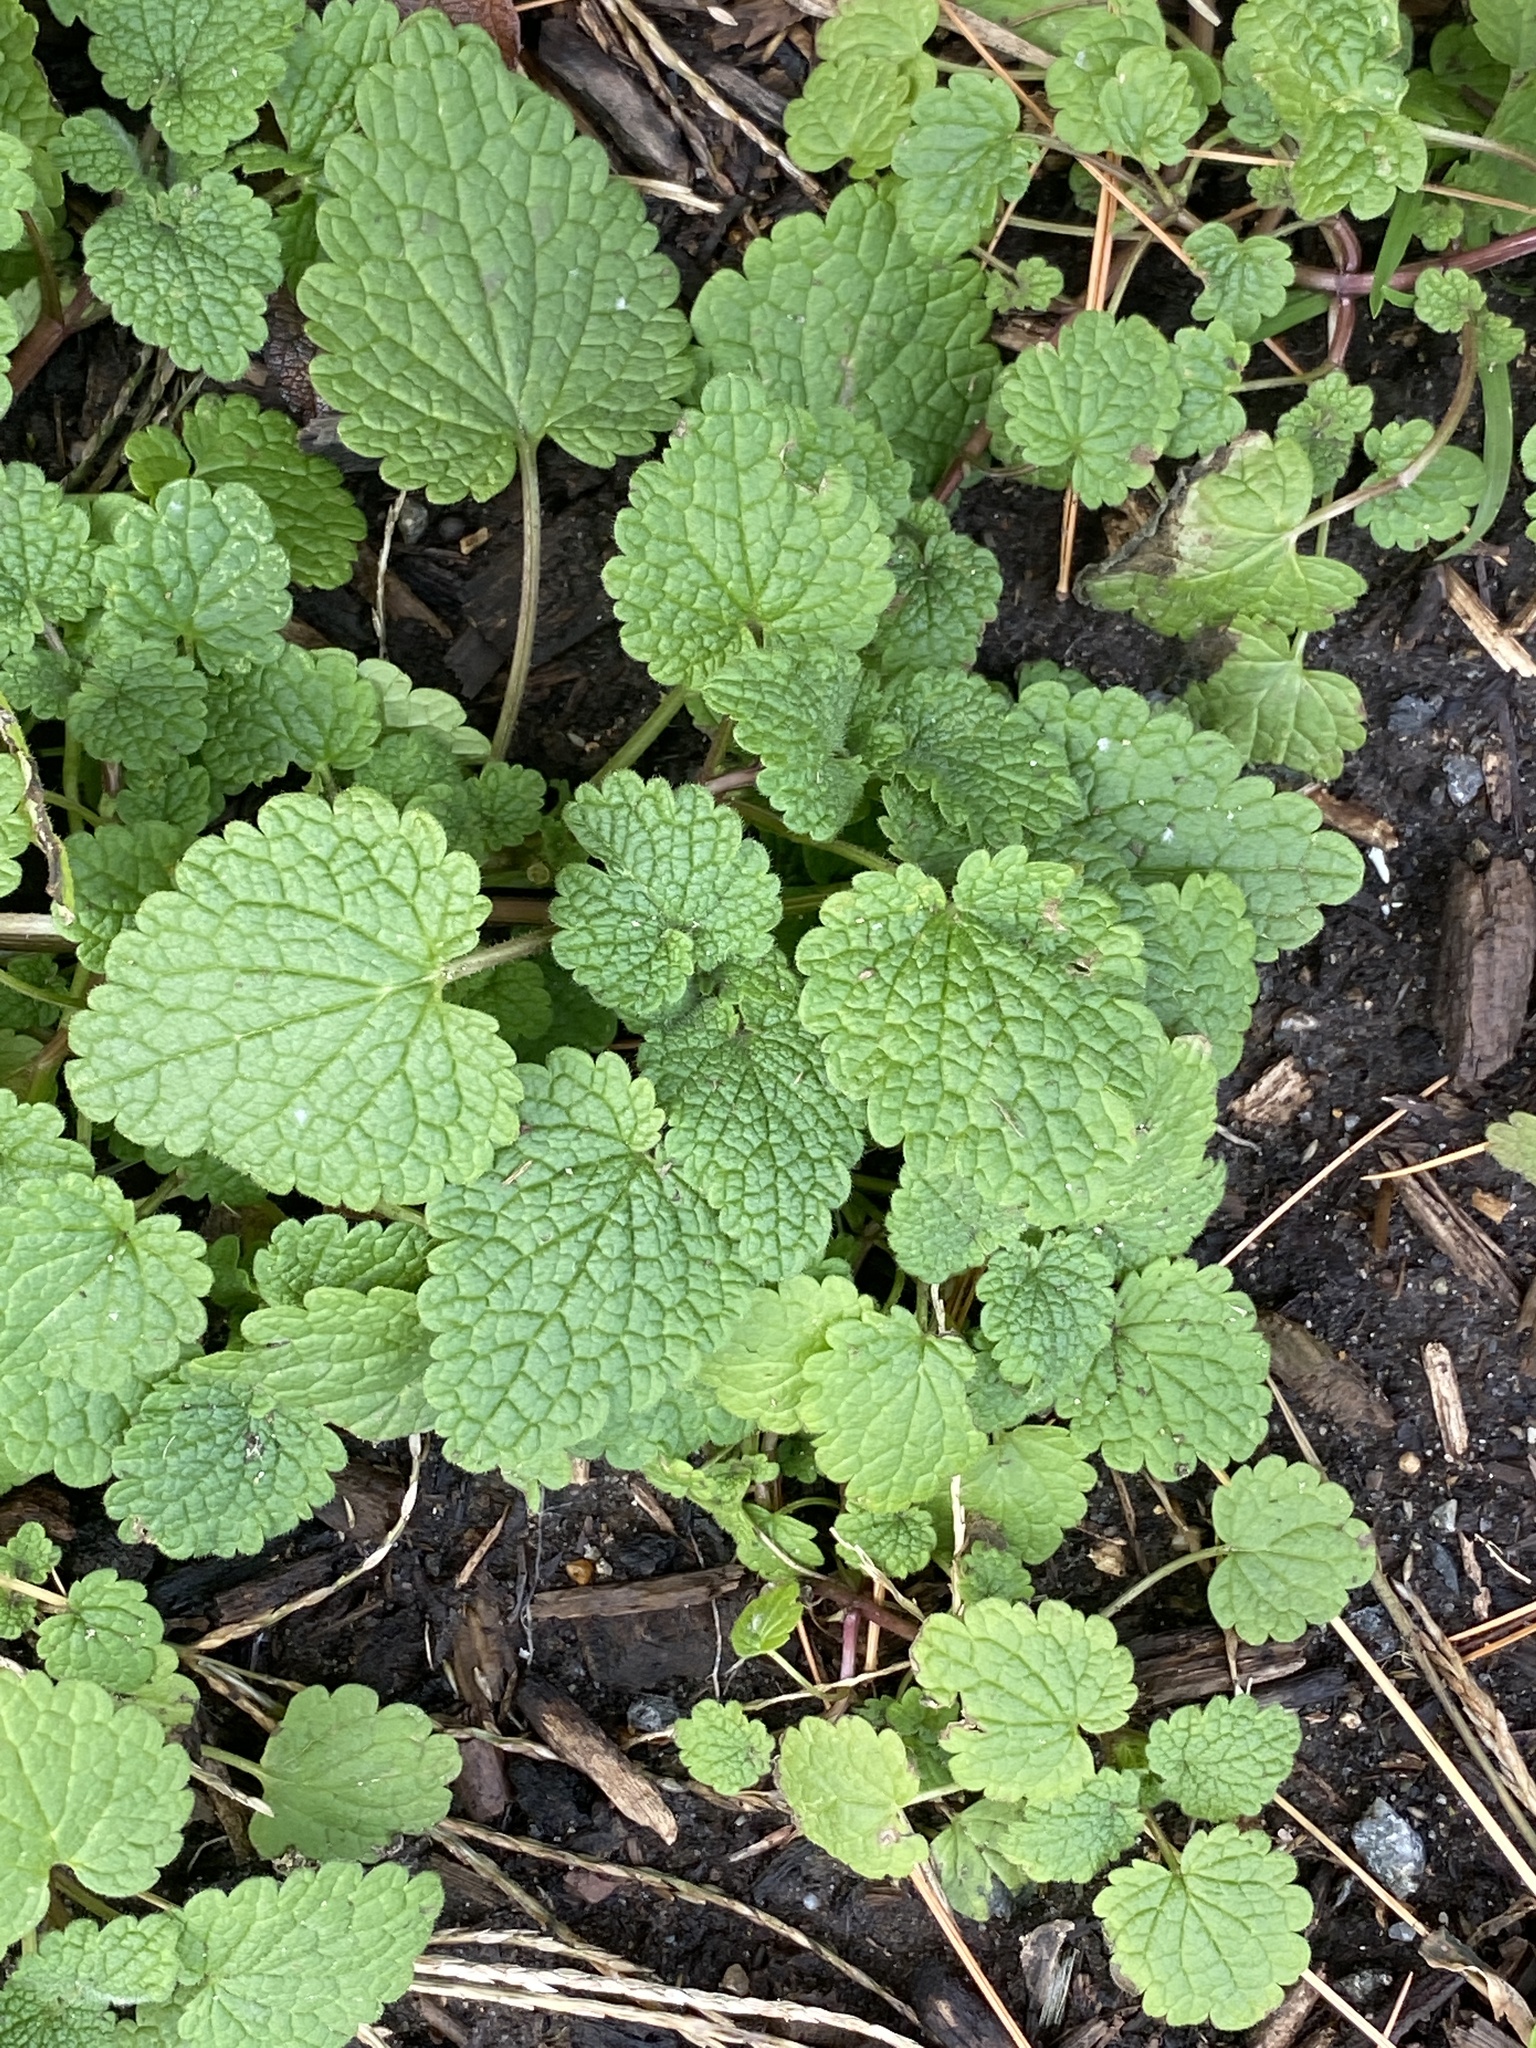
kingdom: Plantae
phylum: Tracheophyta
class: Magnoliopsida
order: Lamiales
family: Lamiaceae
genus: Lamium
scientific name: Lamium purpureum
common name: Red dead-nettle
